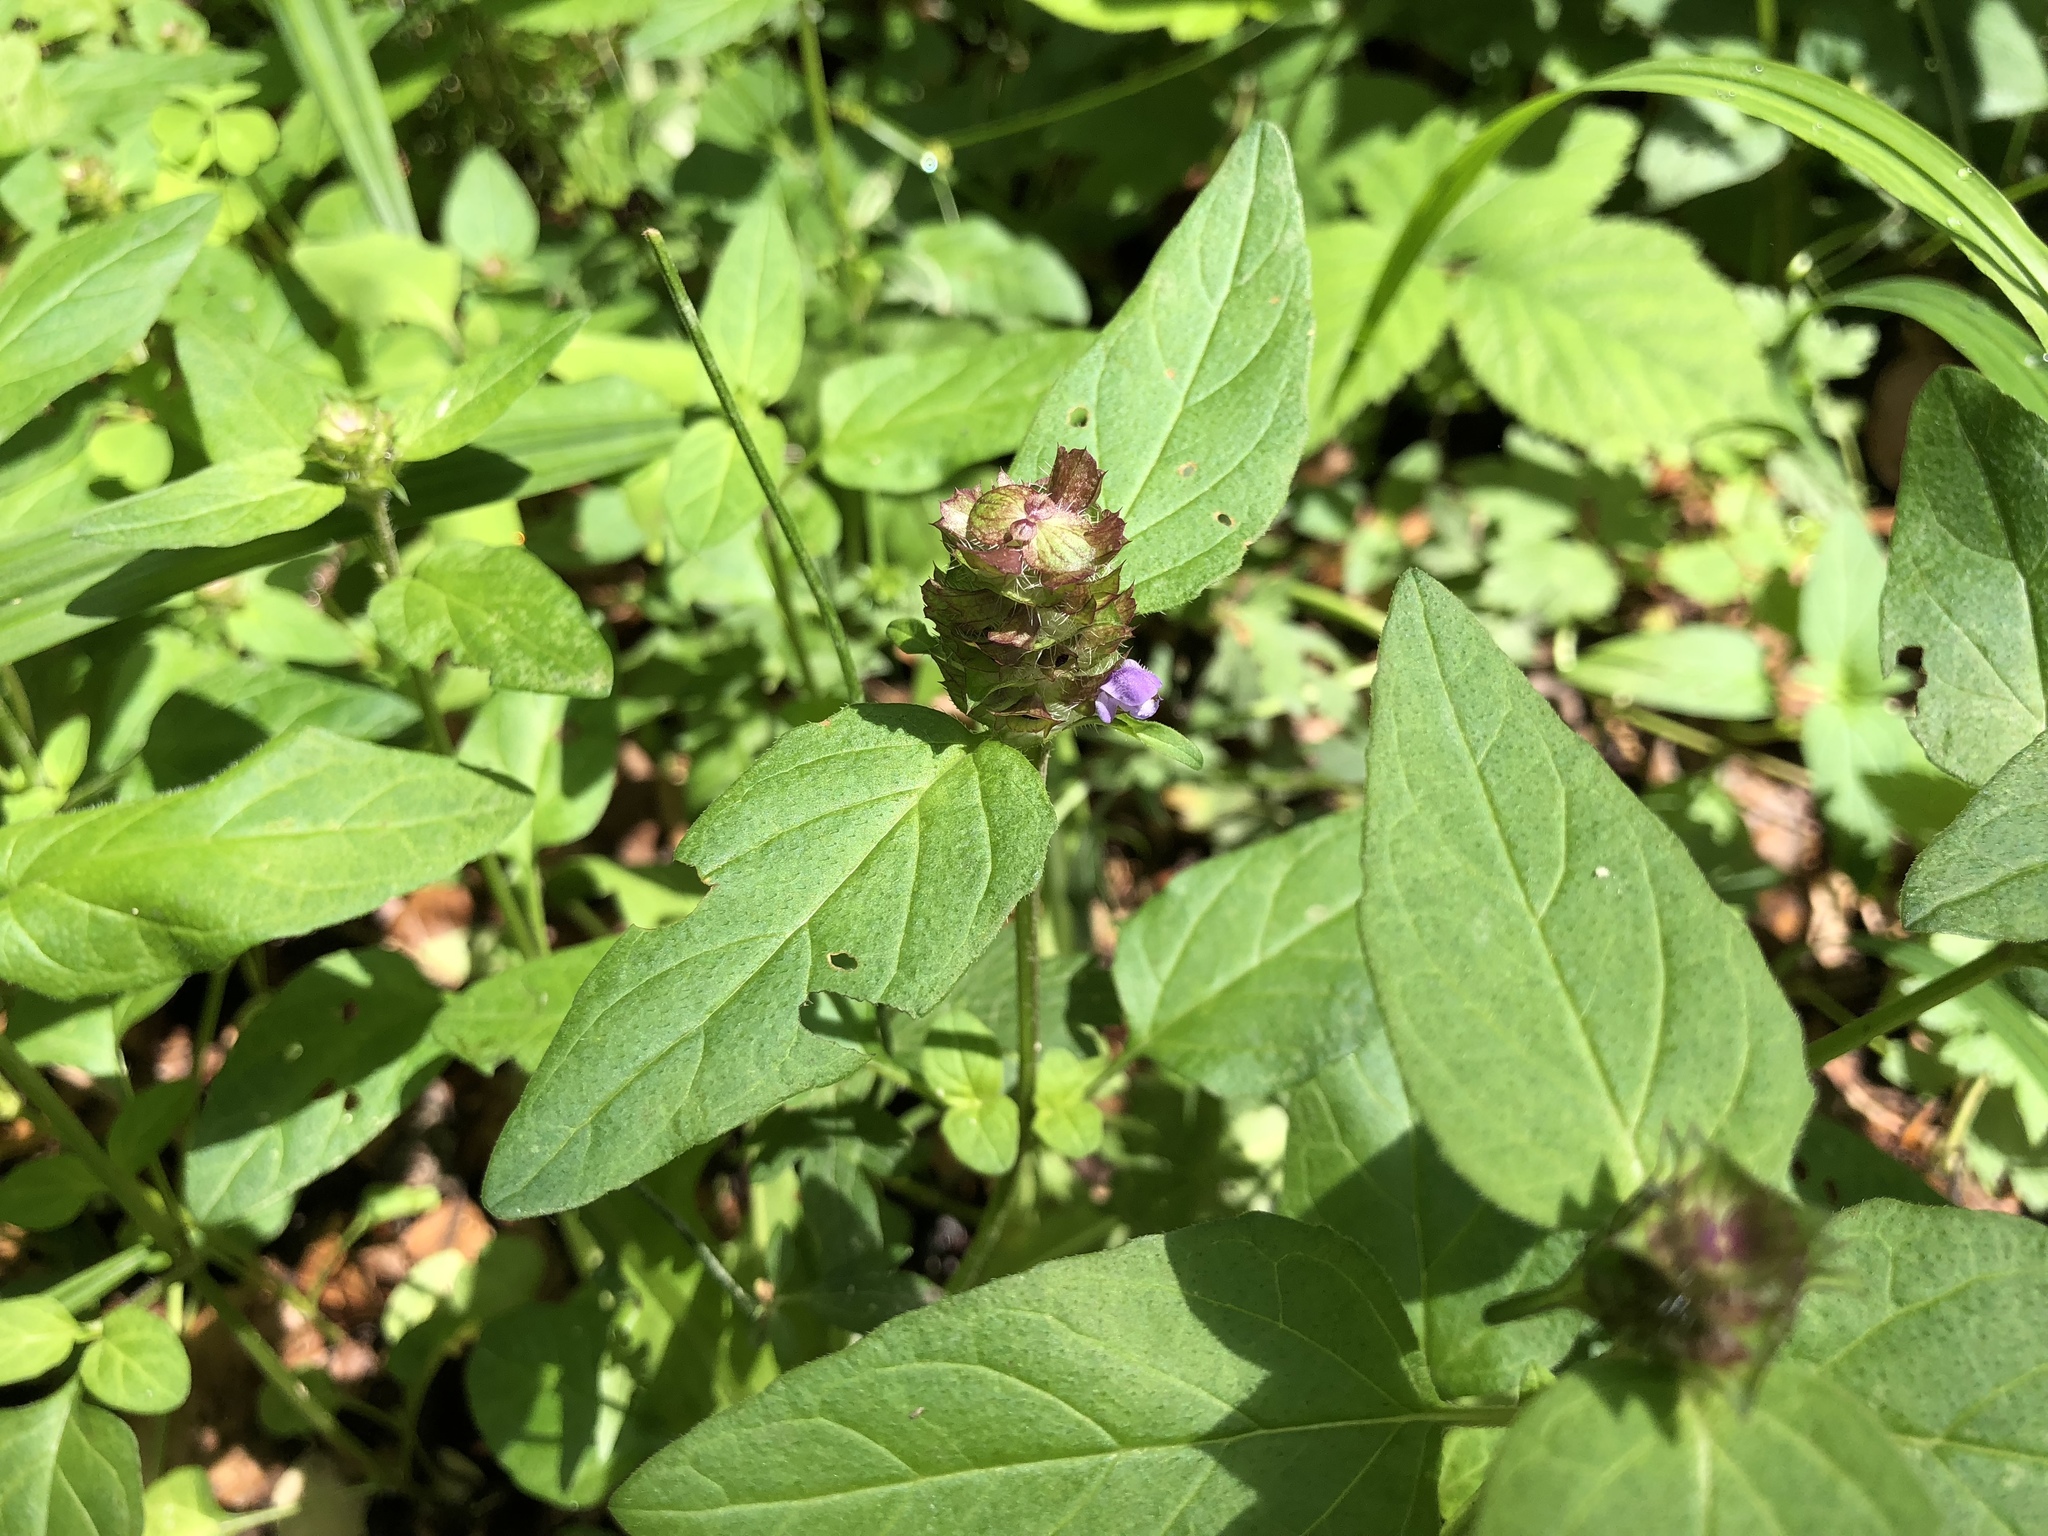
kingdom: Plantae
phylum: Tracheophyta
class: Magnoliopsida
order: Lamiales
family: Lamiaceae
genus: Prunella
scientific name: Prunella vulgaris
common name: Heal-all
